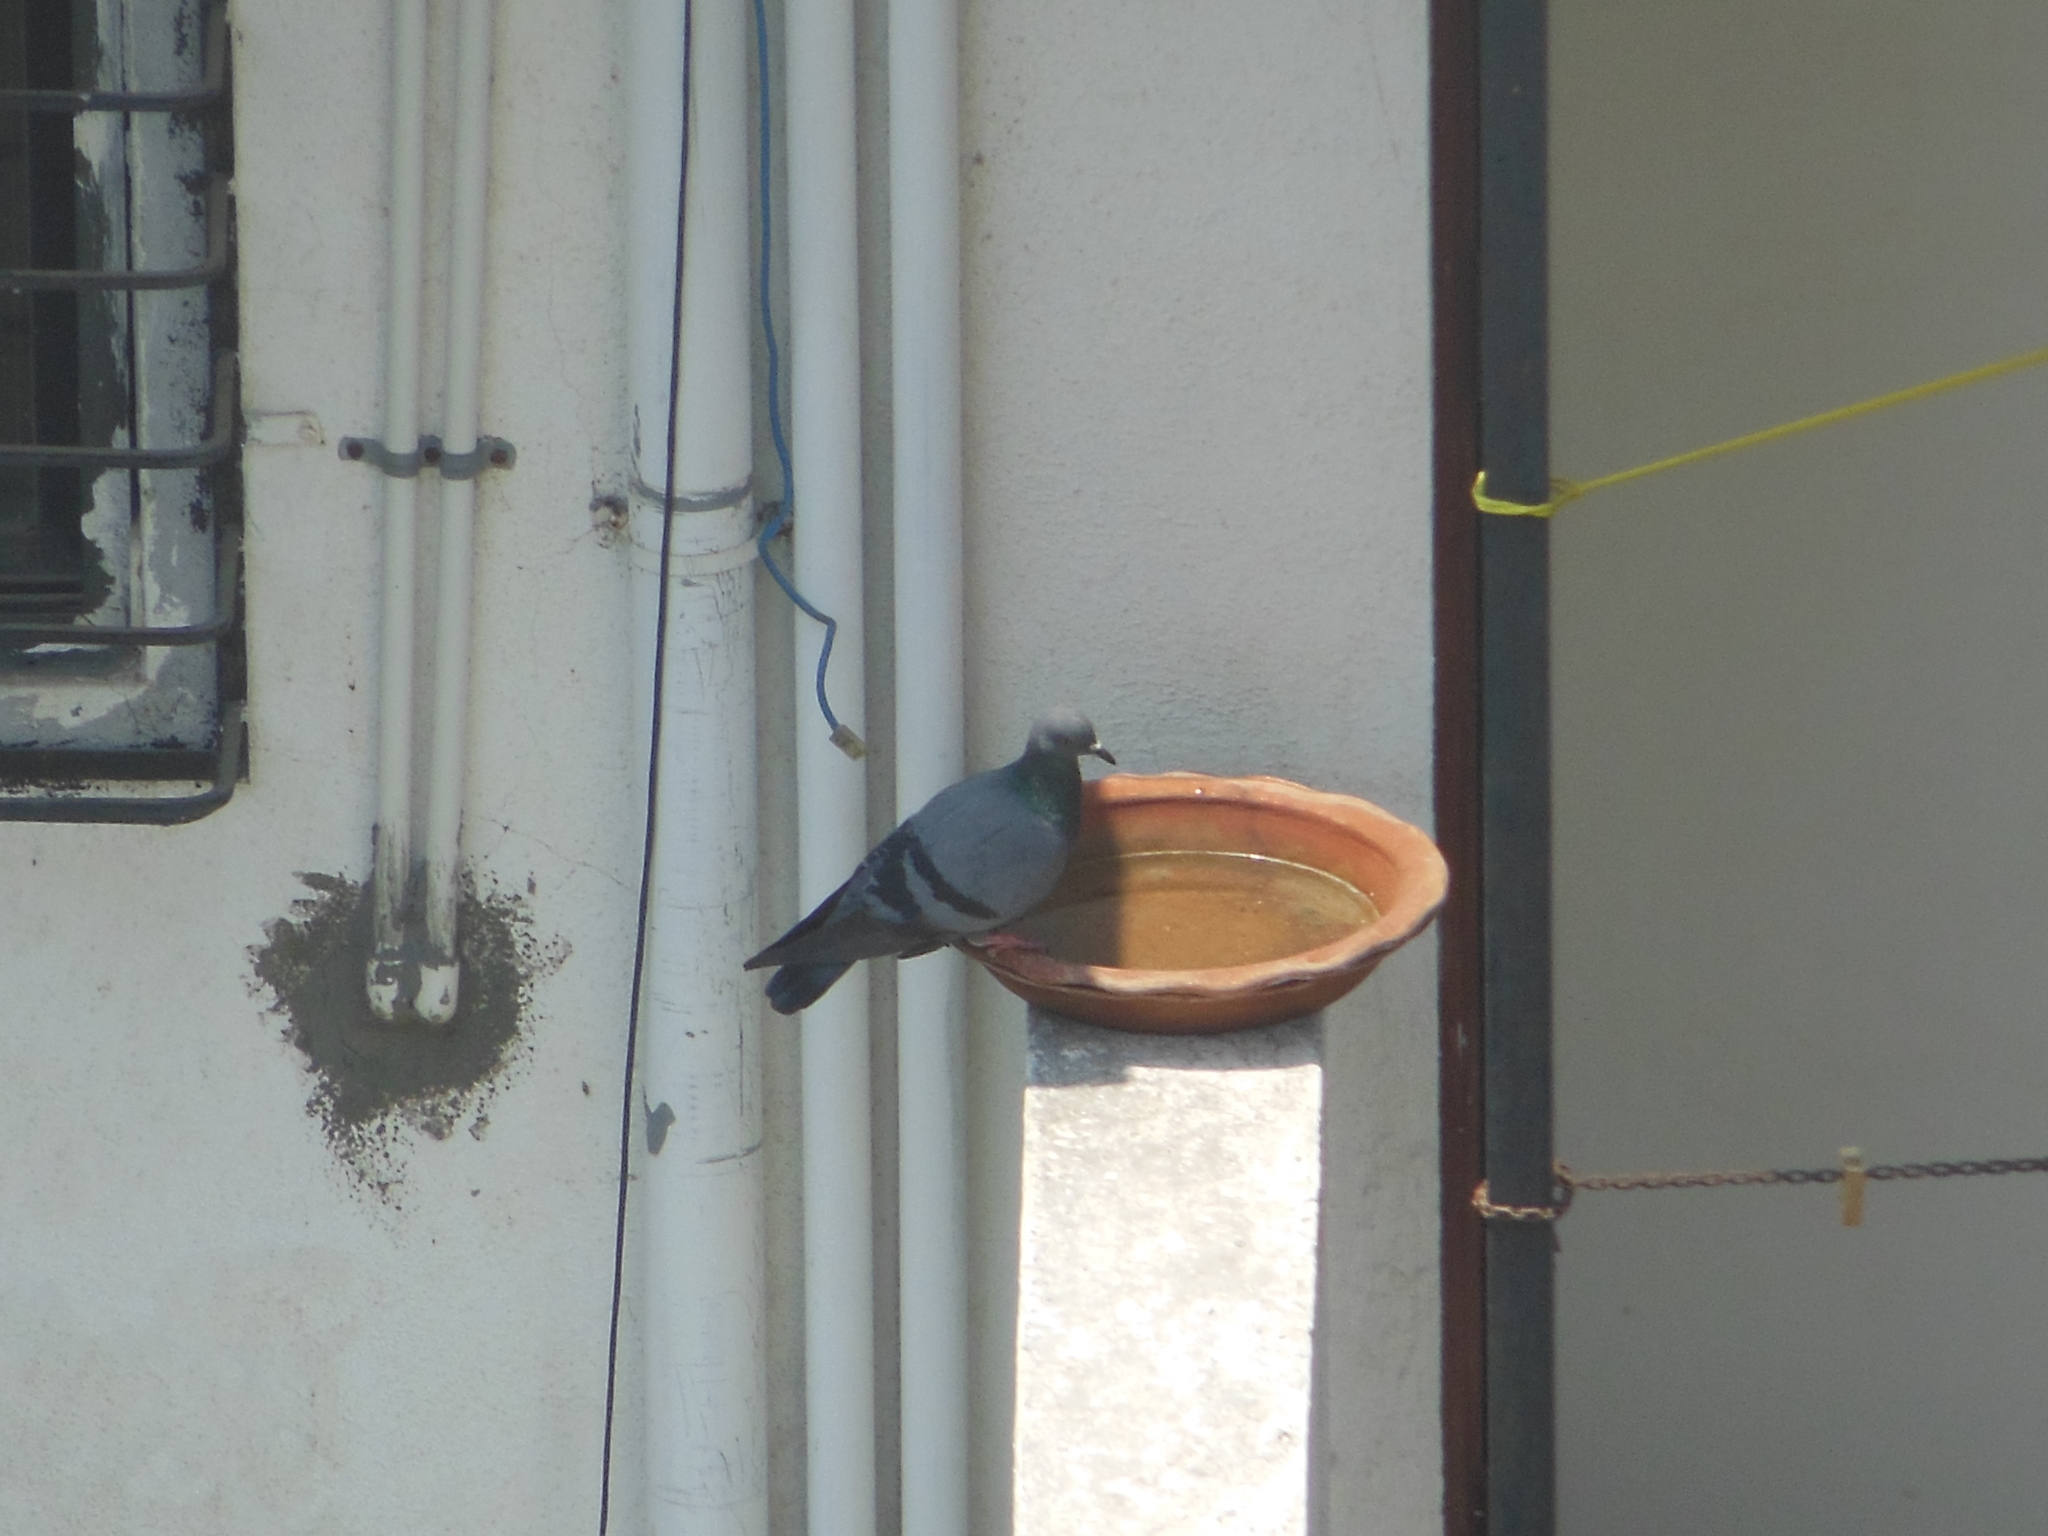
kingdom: Animalia
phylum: Chordata
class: Aves
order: Columbiformes
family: Columbidae
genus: Columba
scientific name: Columba livia
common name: Rock pigeon
